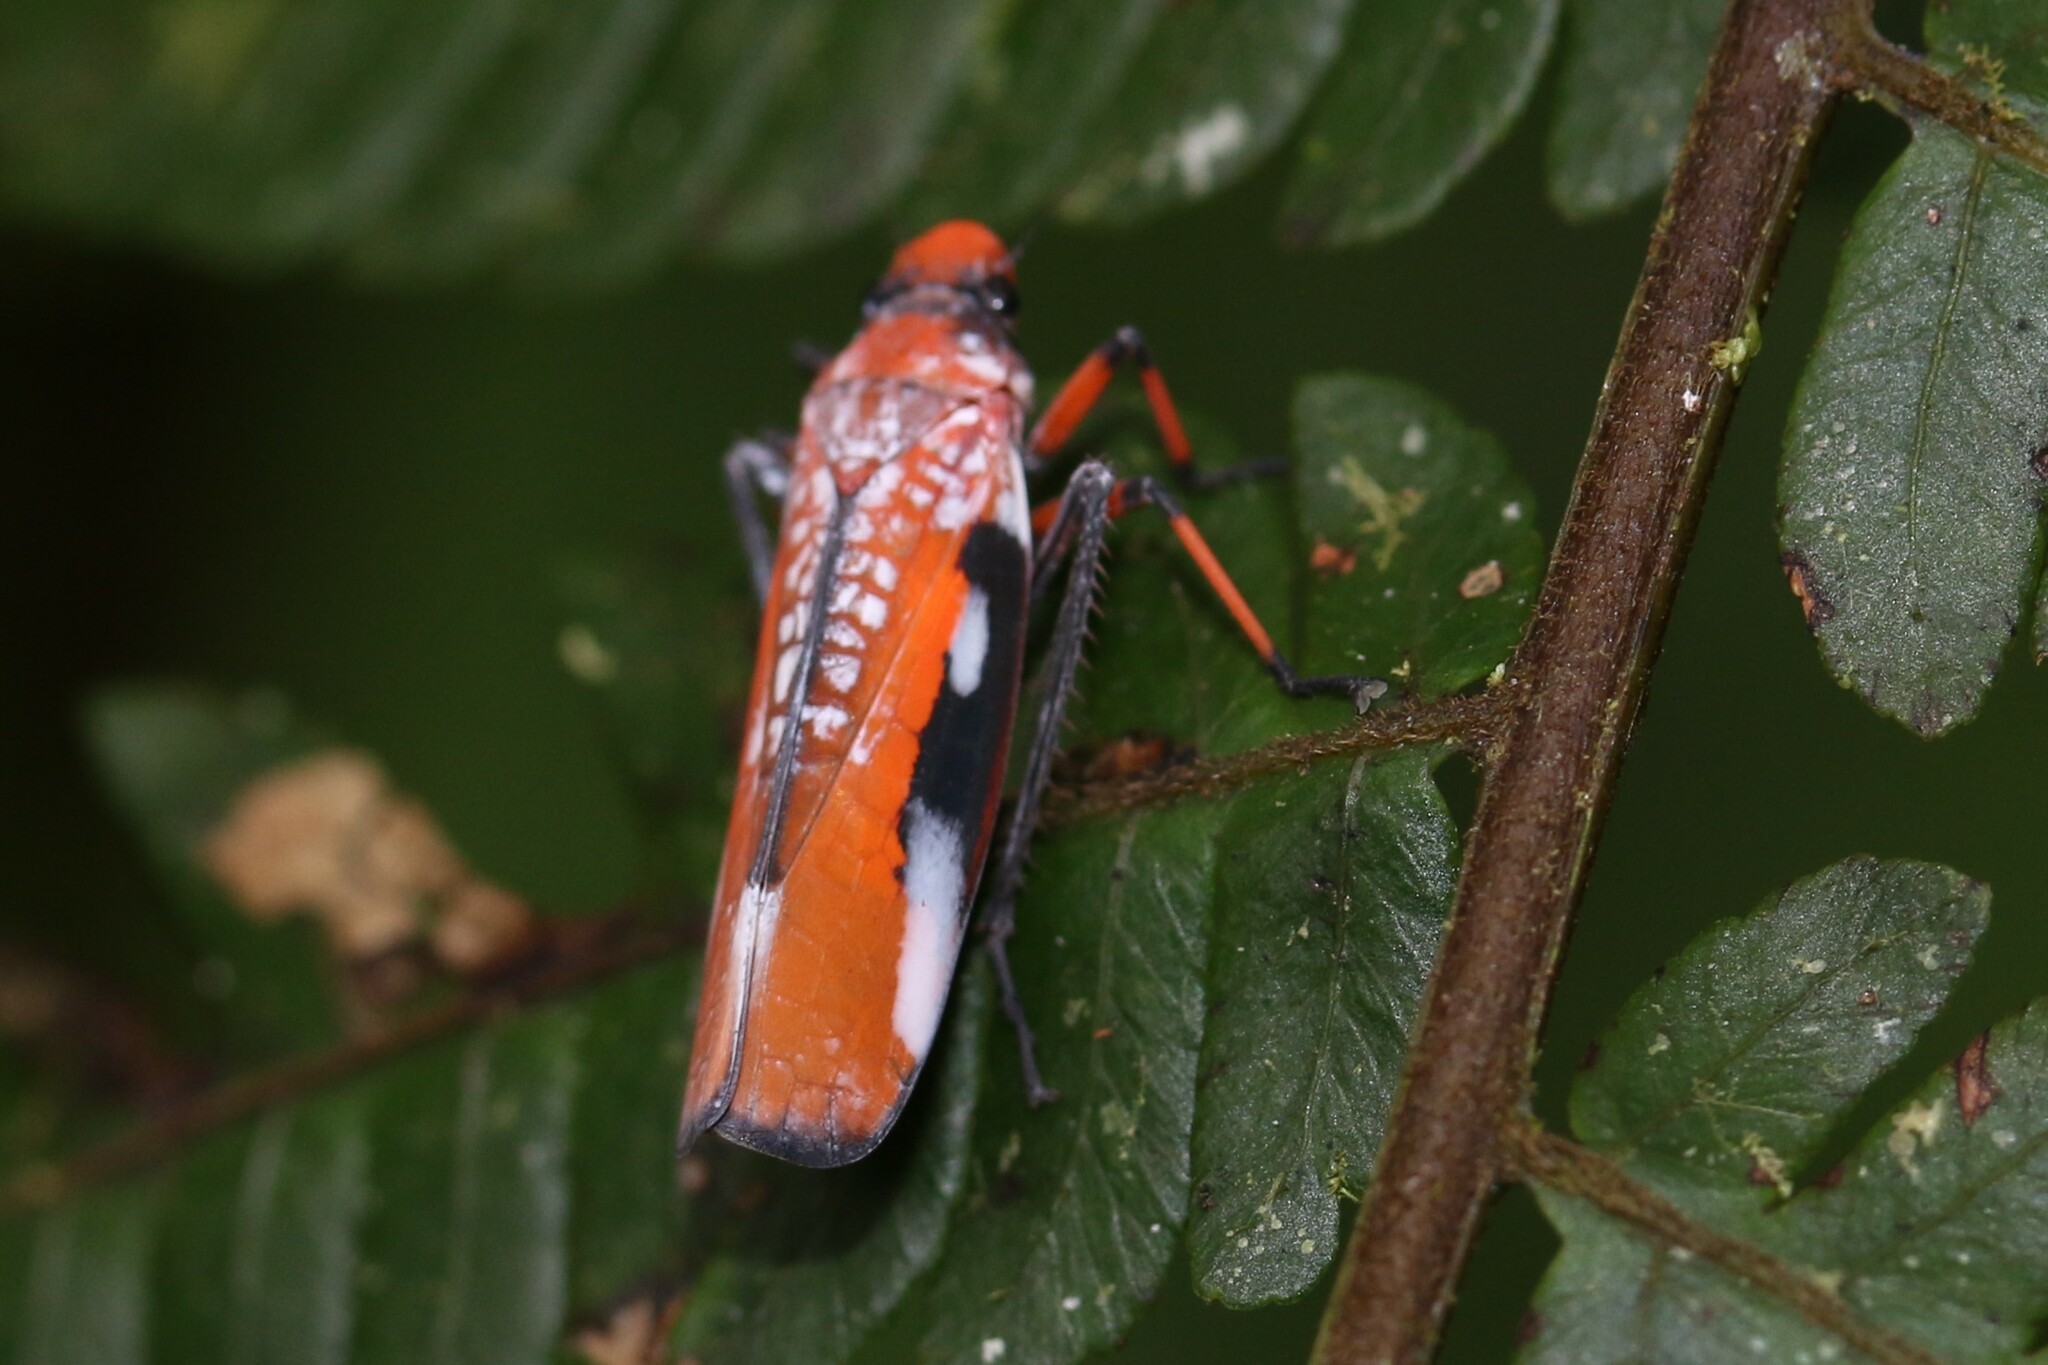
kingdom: Animalia
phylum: Arthropoda
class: Insecta
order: Hemiptera
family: Cicadellidae
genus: Onega
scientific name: Onega avella
